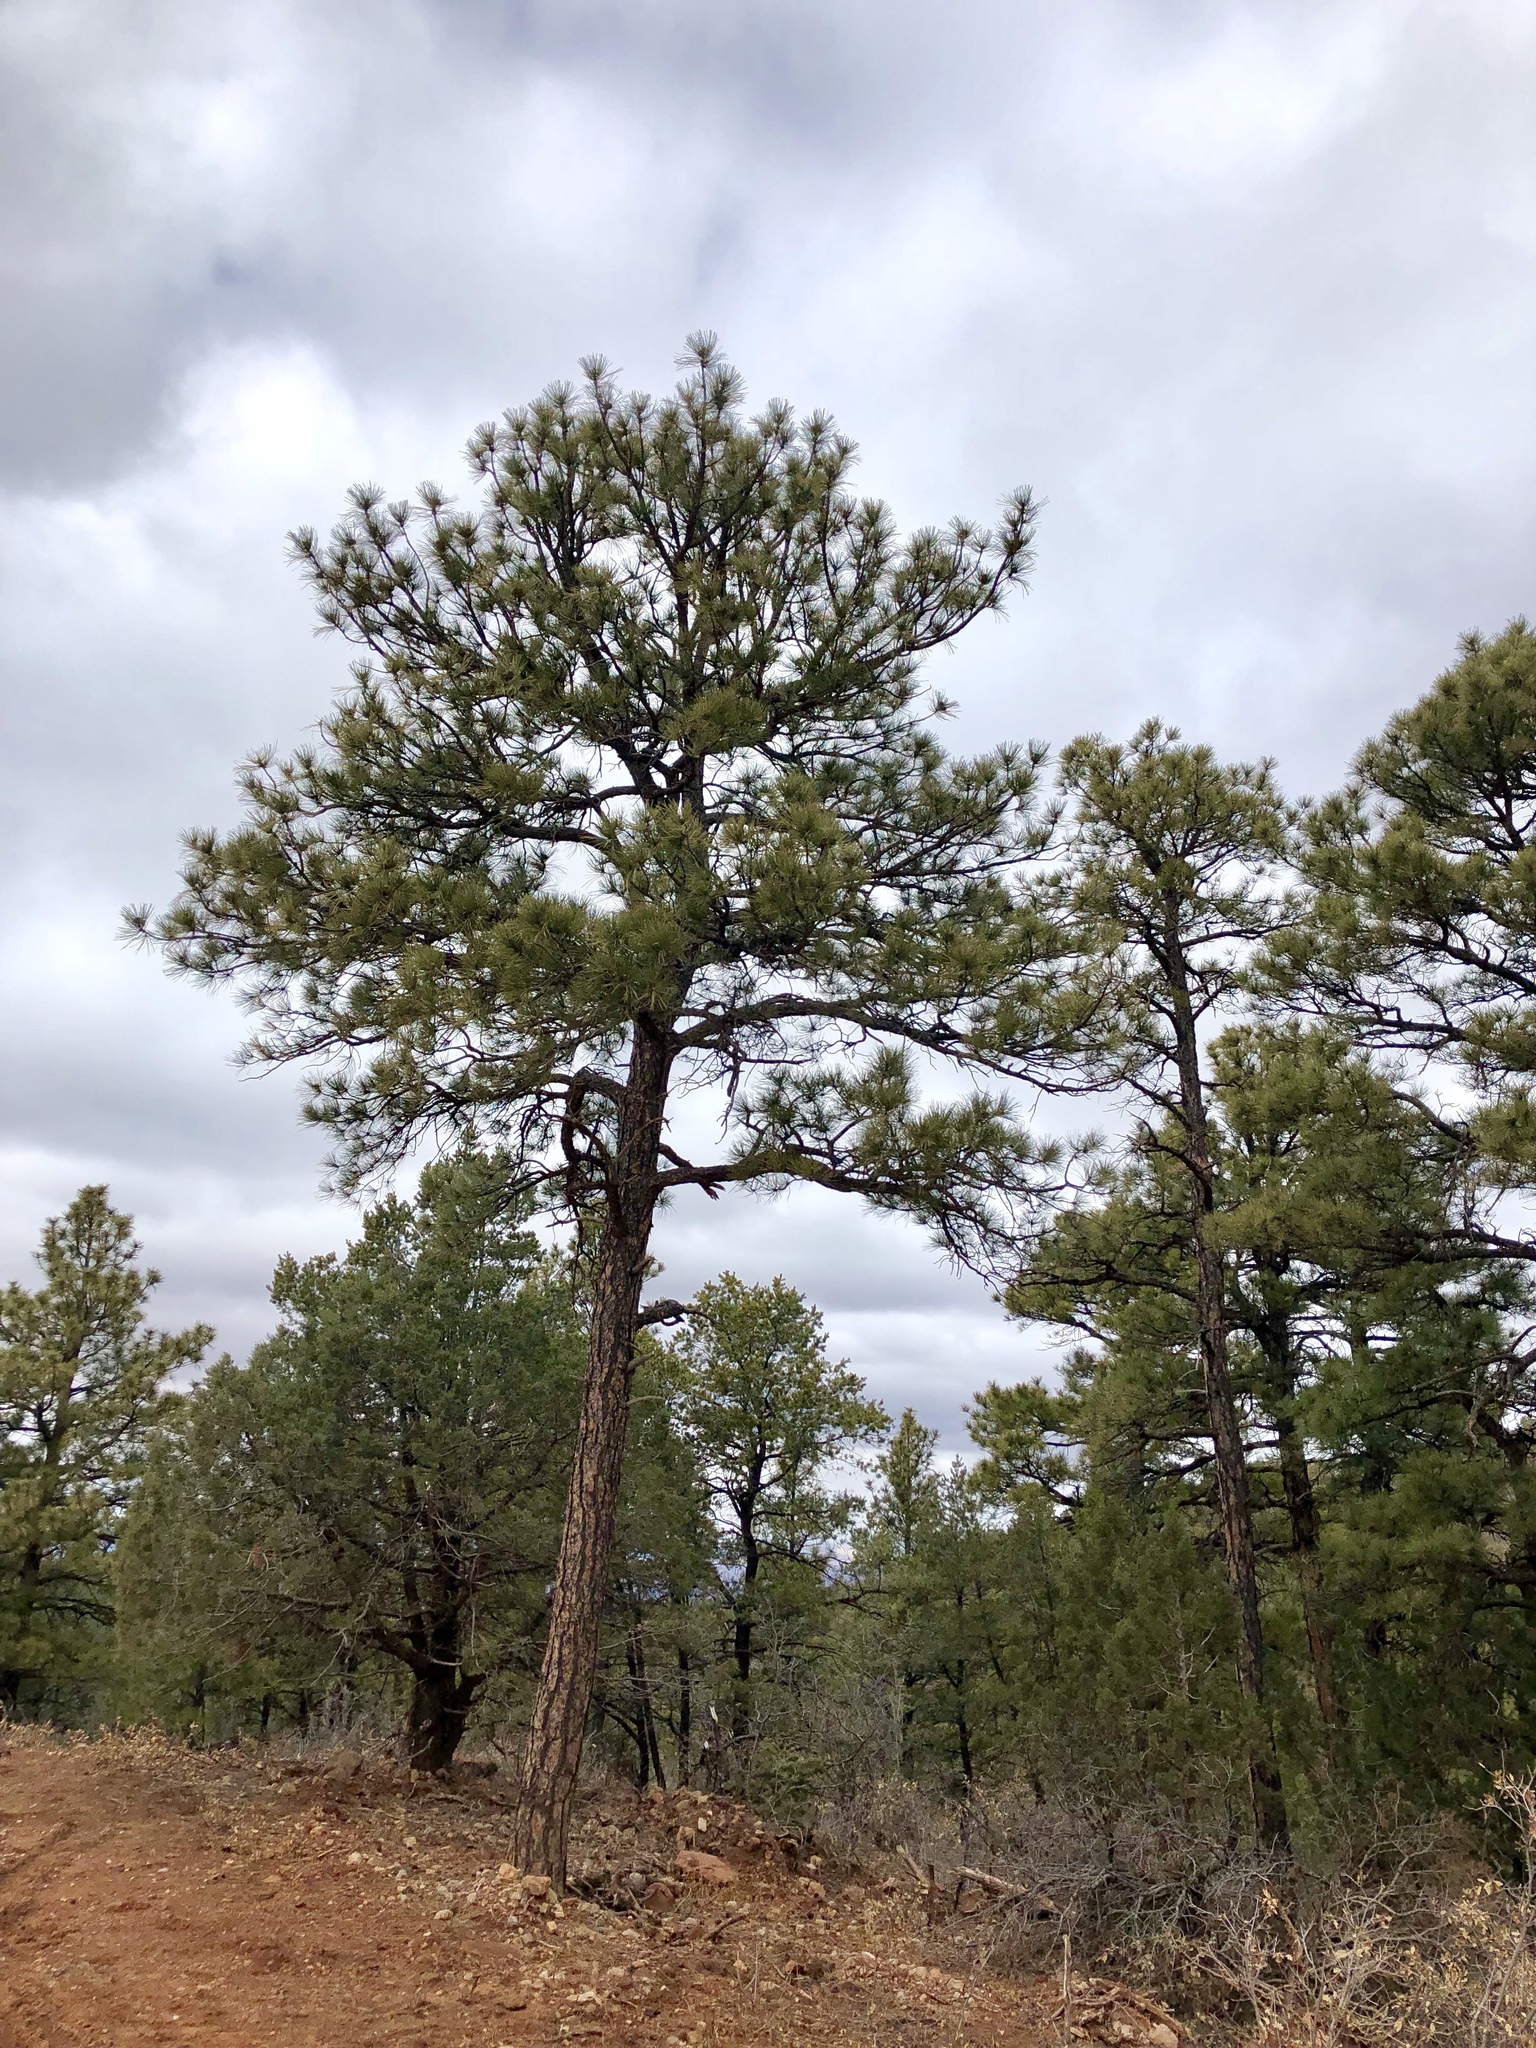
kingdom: Plantae
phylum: Tracheophyta
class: Pinopsida
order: Pinales
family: Pinaceae
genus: Pinus
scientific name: Pinus ponderosa
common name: Western yellow-pine
